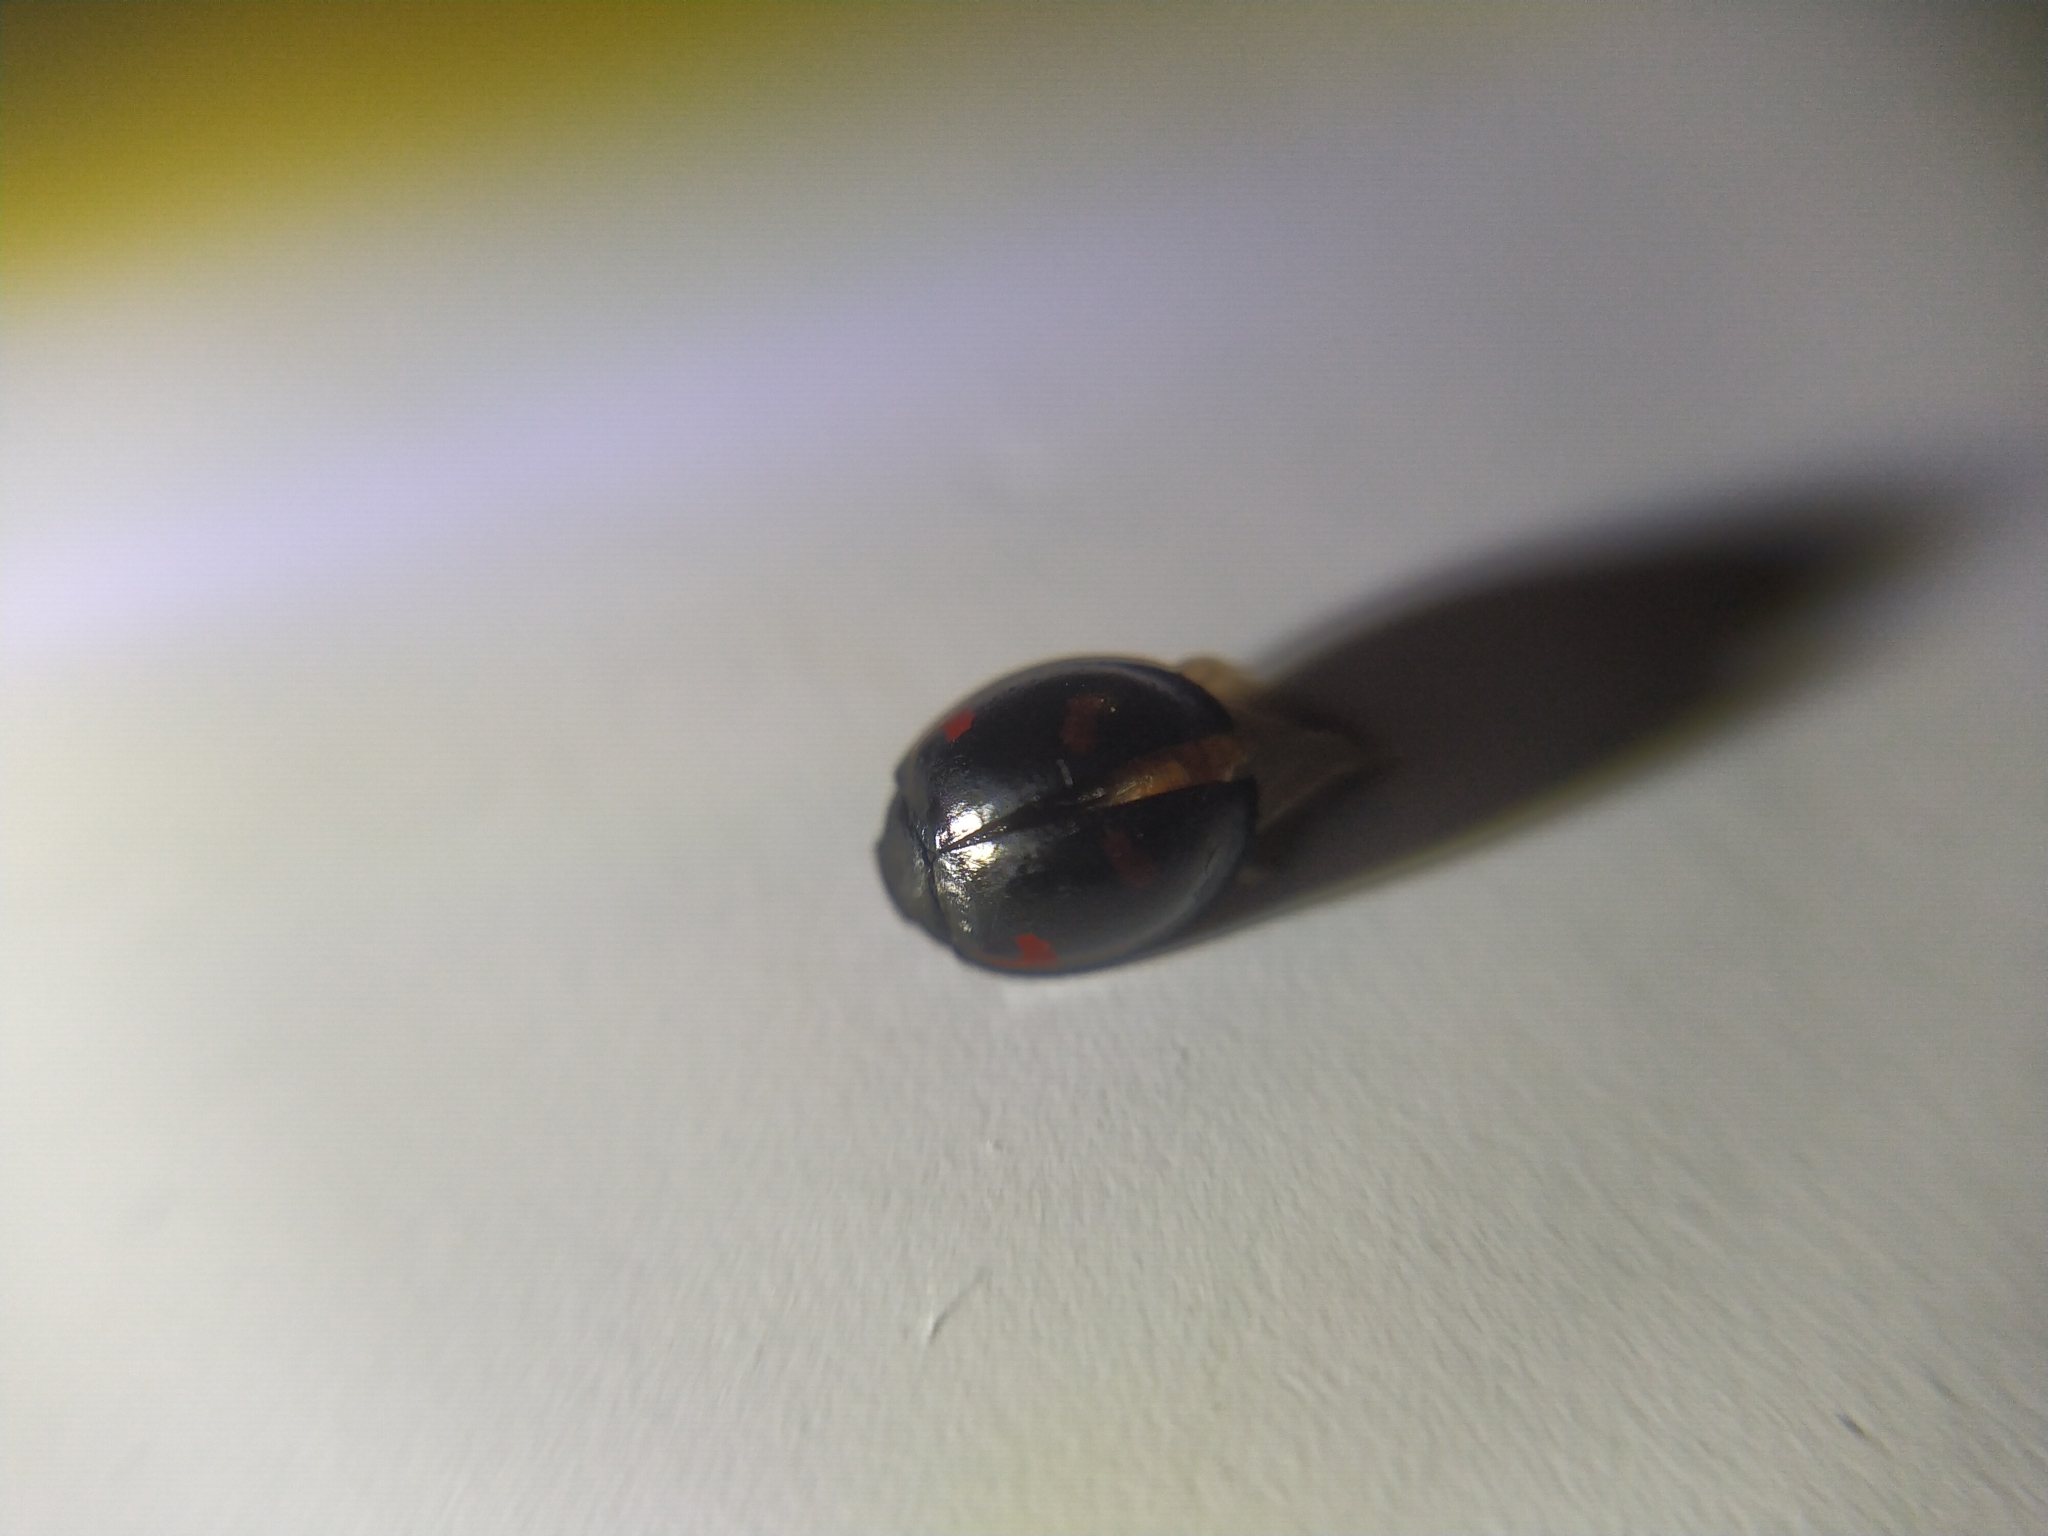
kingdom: Animalia
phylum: Arthropoda
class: Insecta
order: Coleoptera
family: Coccinellidae
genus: Brumus
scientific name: Brumus quadripustulatus
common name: Ladybird beetle
